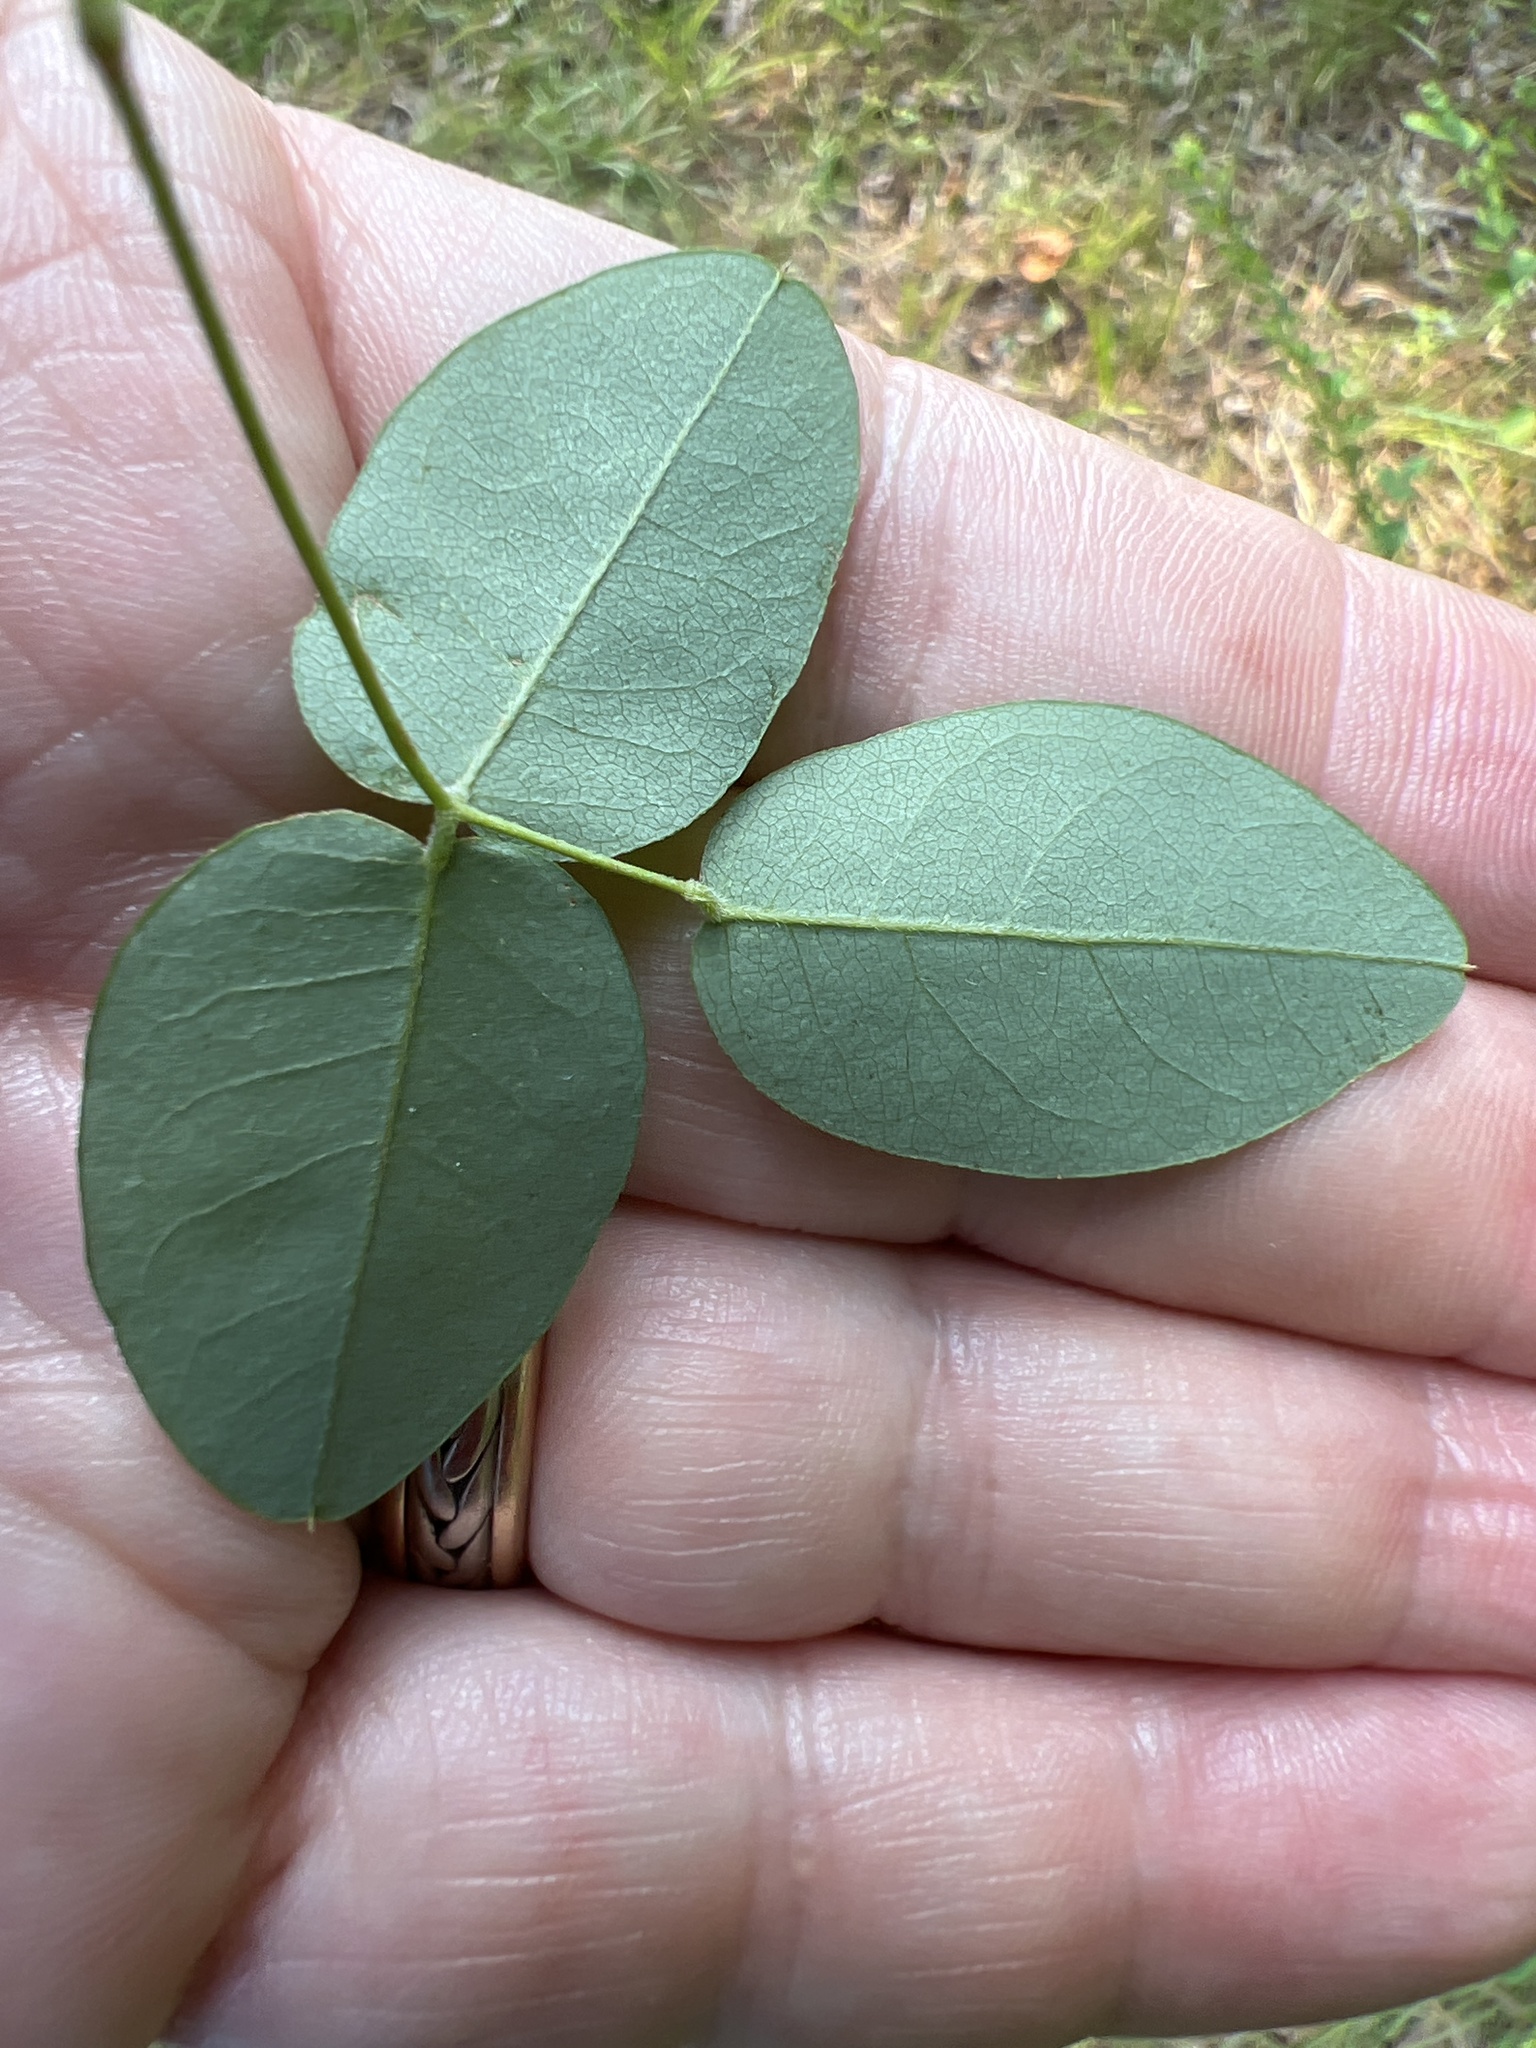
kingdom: Plantae
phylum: Tracheophyta
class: Magnoliopsida
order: Fabales
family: Fabaceae
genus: Galactia
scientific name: Galactia regularis
